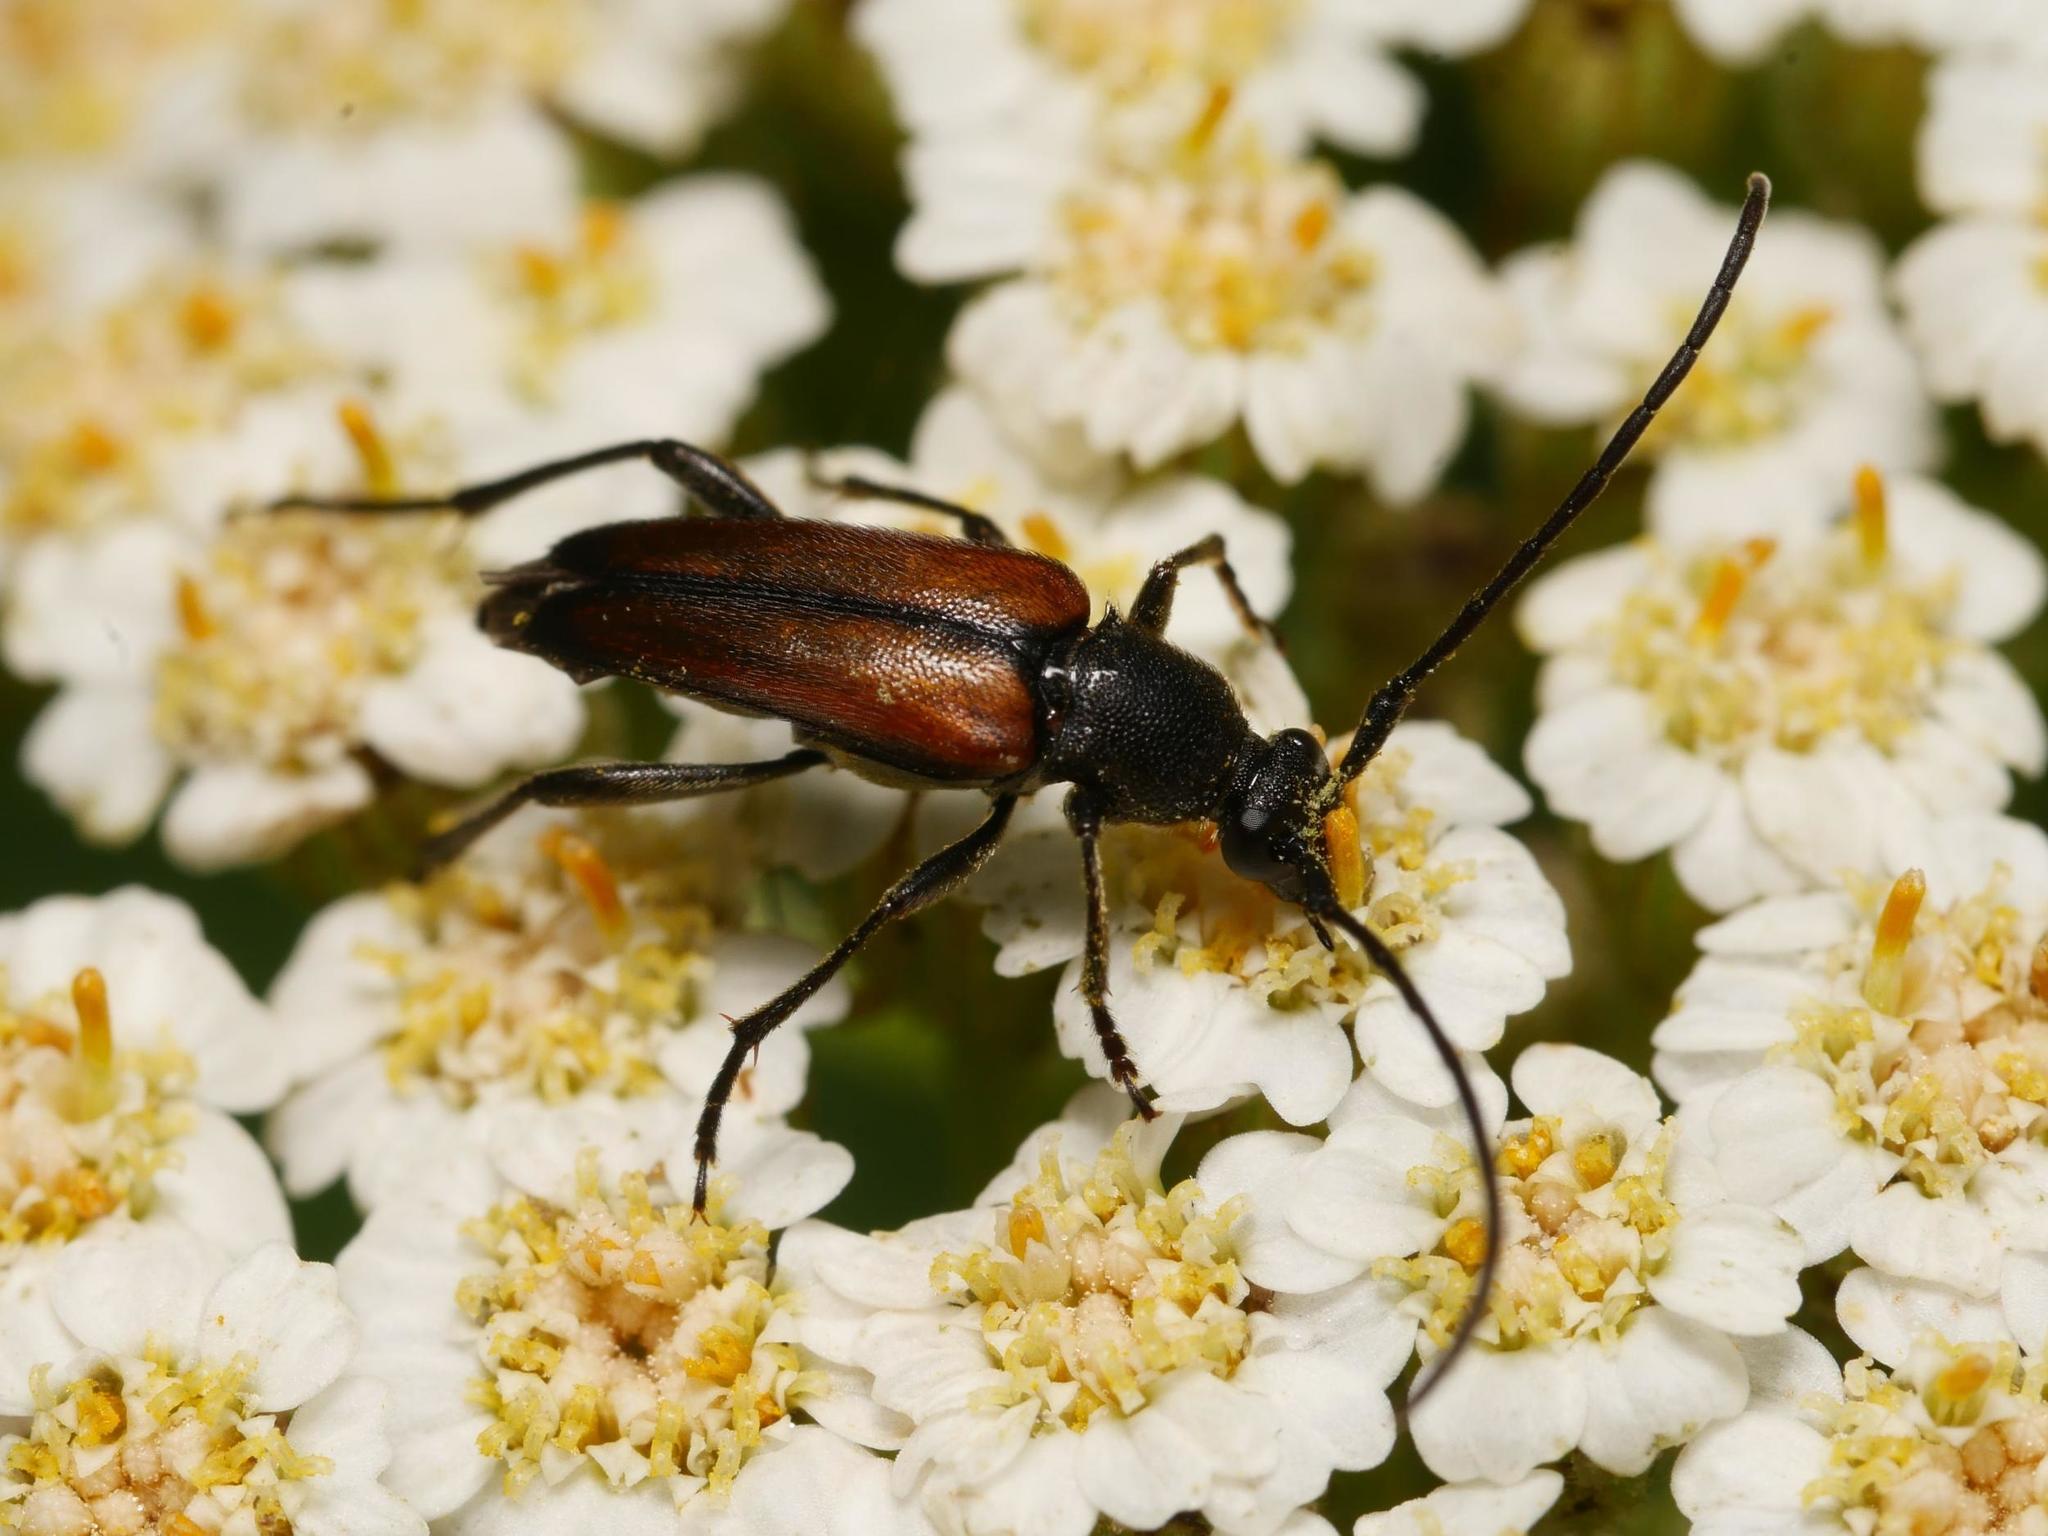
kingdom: Animalia
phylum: Arthropoda
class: Insecta
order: Coleoptera
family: Cerambycidae
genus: Stenurella
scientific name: Stenurella melanura
